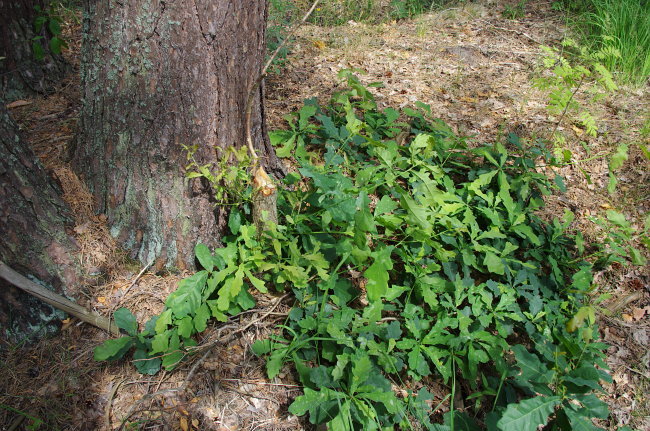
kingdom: Plantae
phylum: Tracheophyta
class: Magnoliopsida
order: Fagales
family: Fagaceae
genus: Quercus
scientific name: Quercus robur
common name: Pedunculate oak
